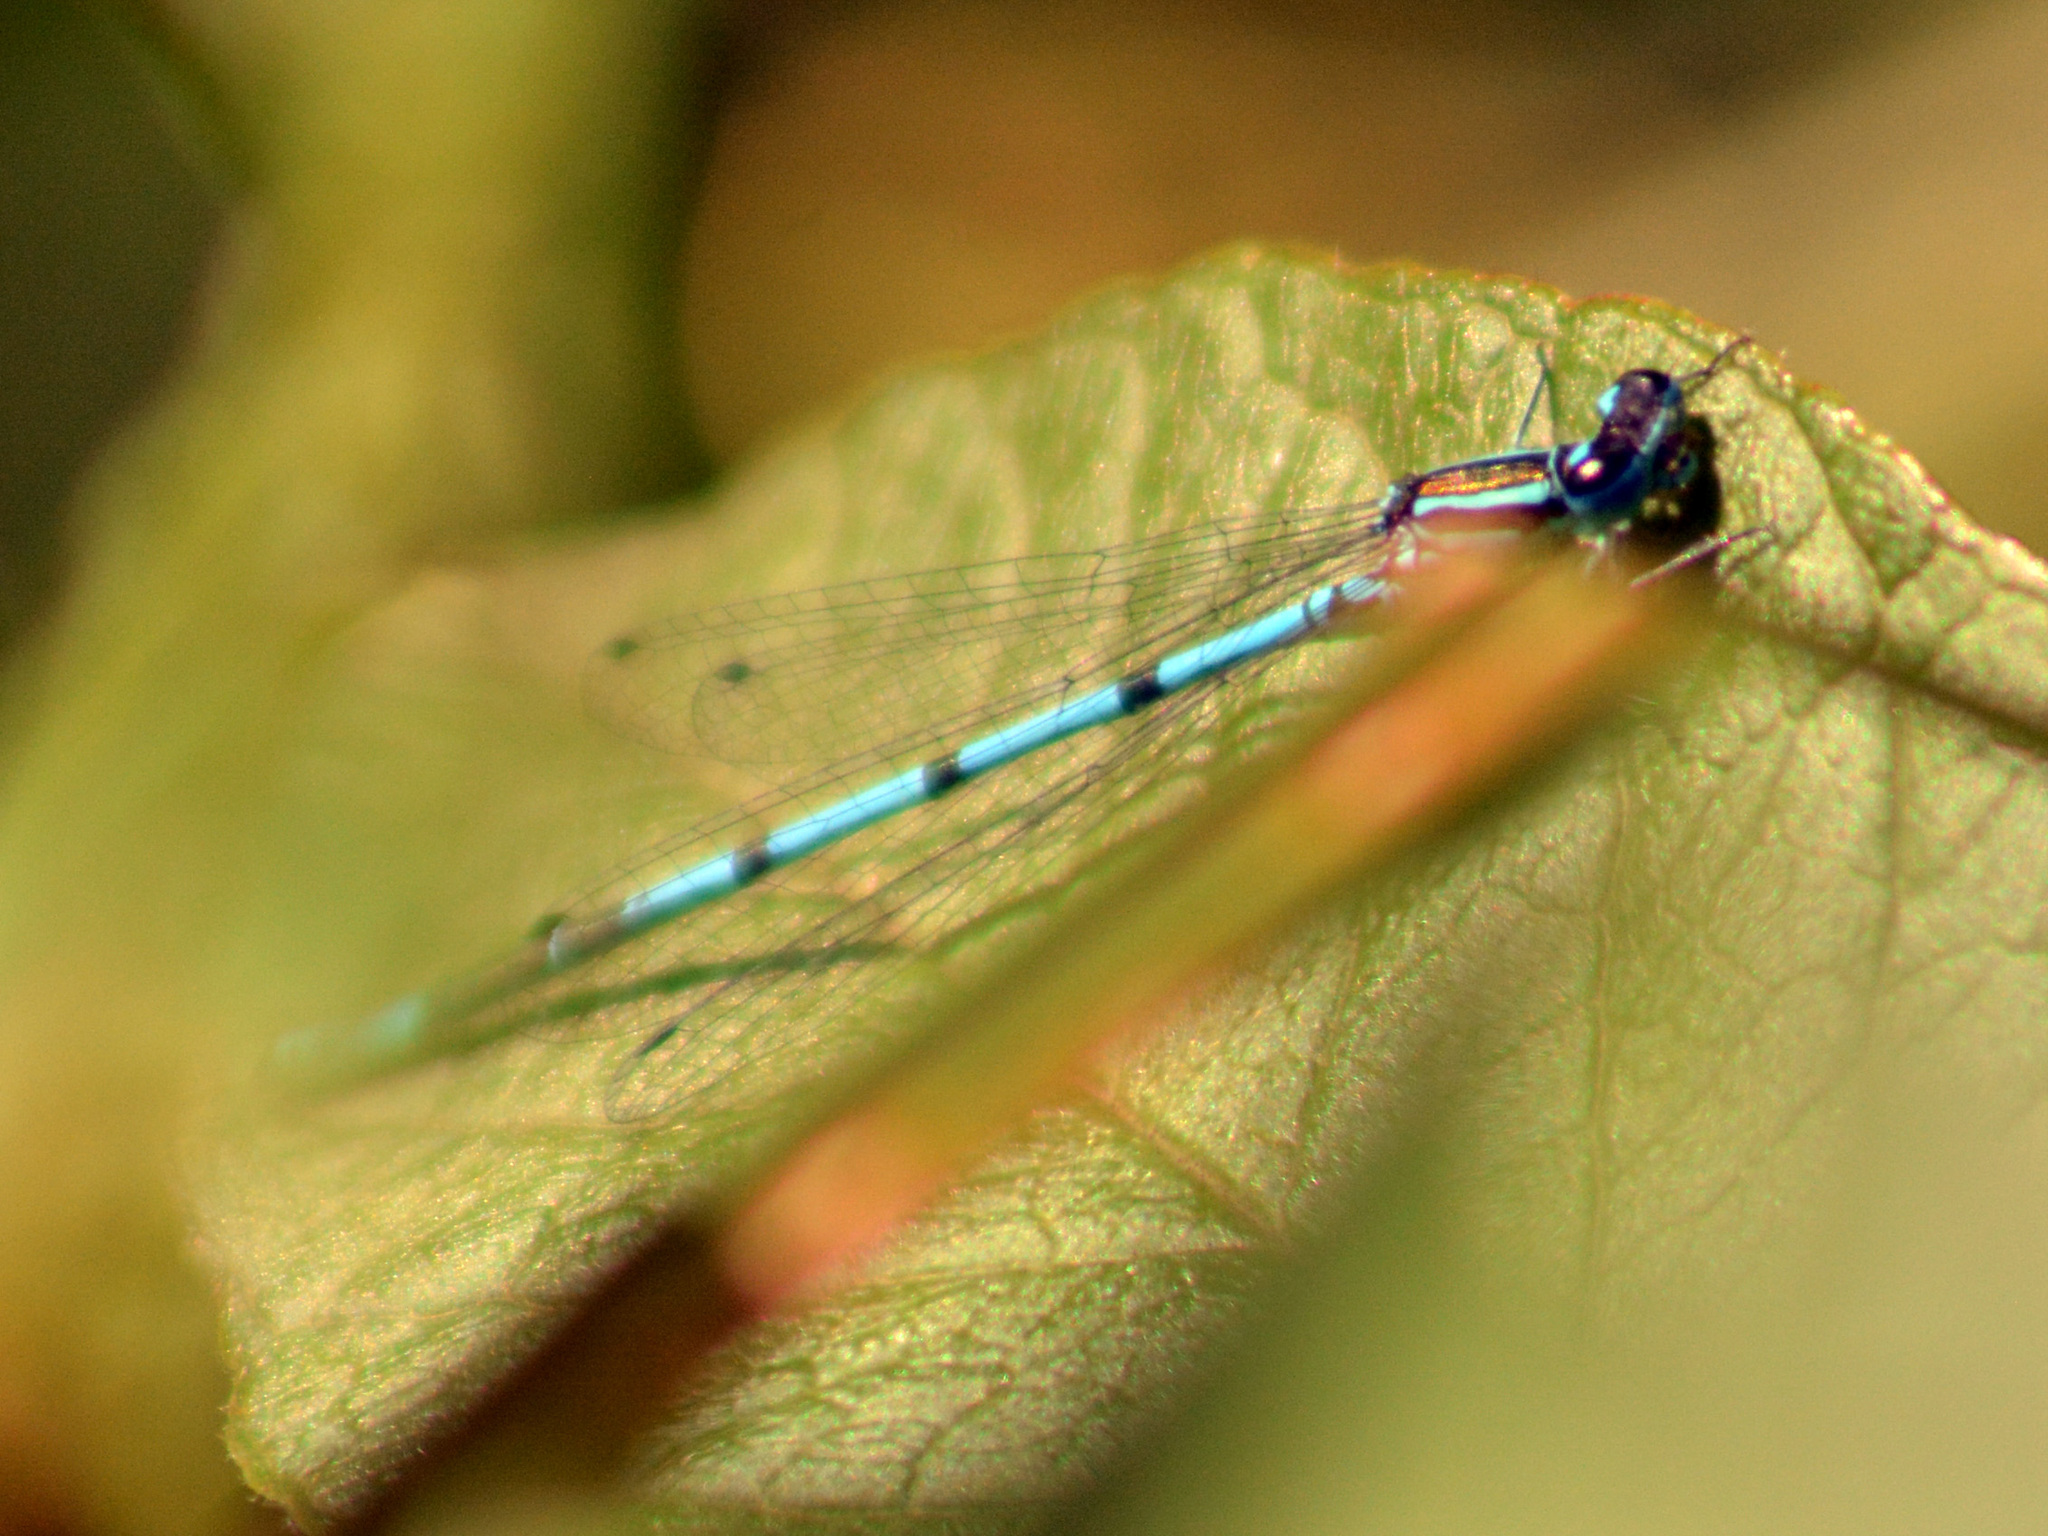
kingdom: Animalia
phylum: Arthropoda
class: Insecta
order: Odonata
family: Coenagrionidae
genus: Coenagrion
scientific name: Coenagrion puella
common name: Azure damselfly
